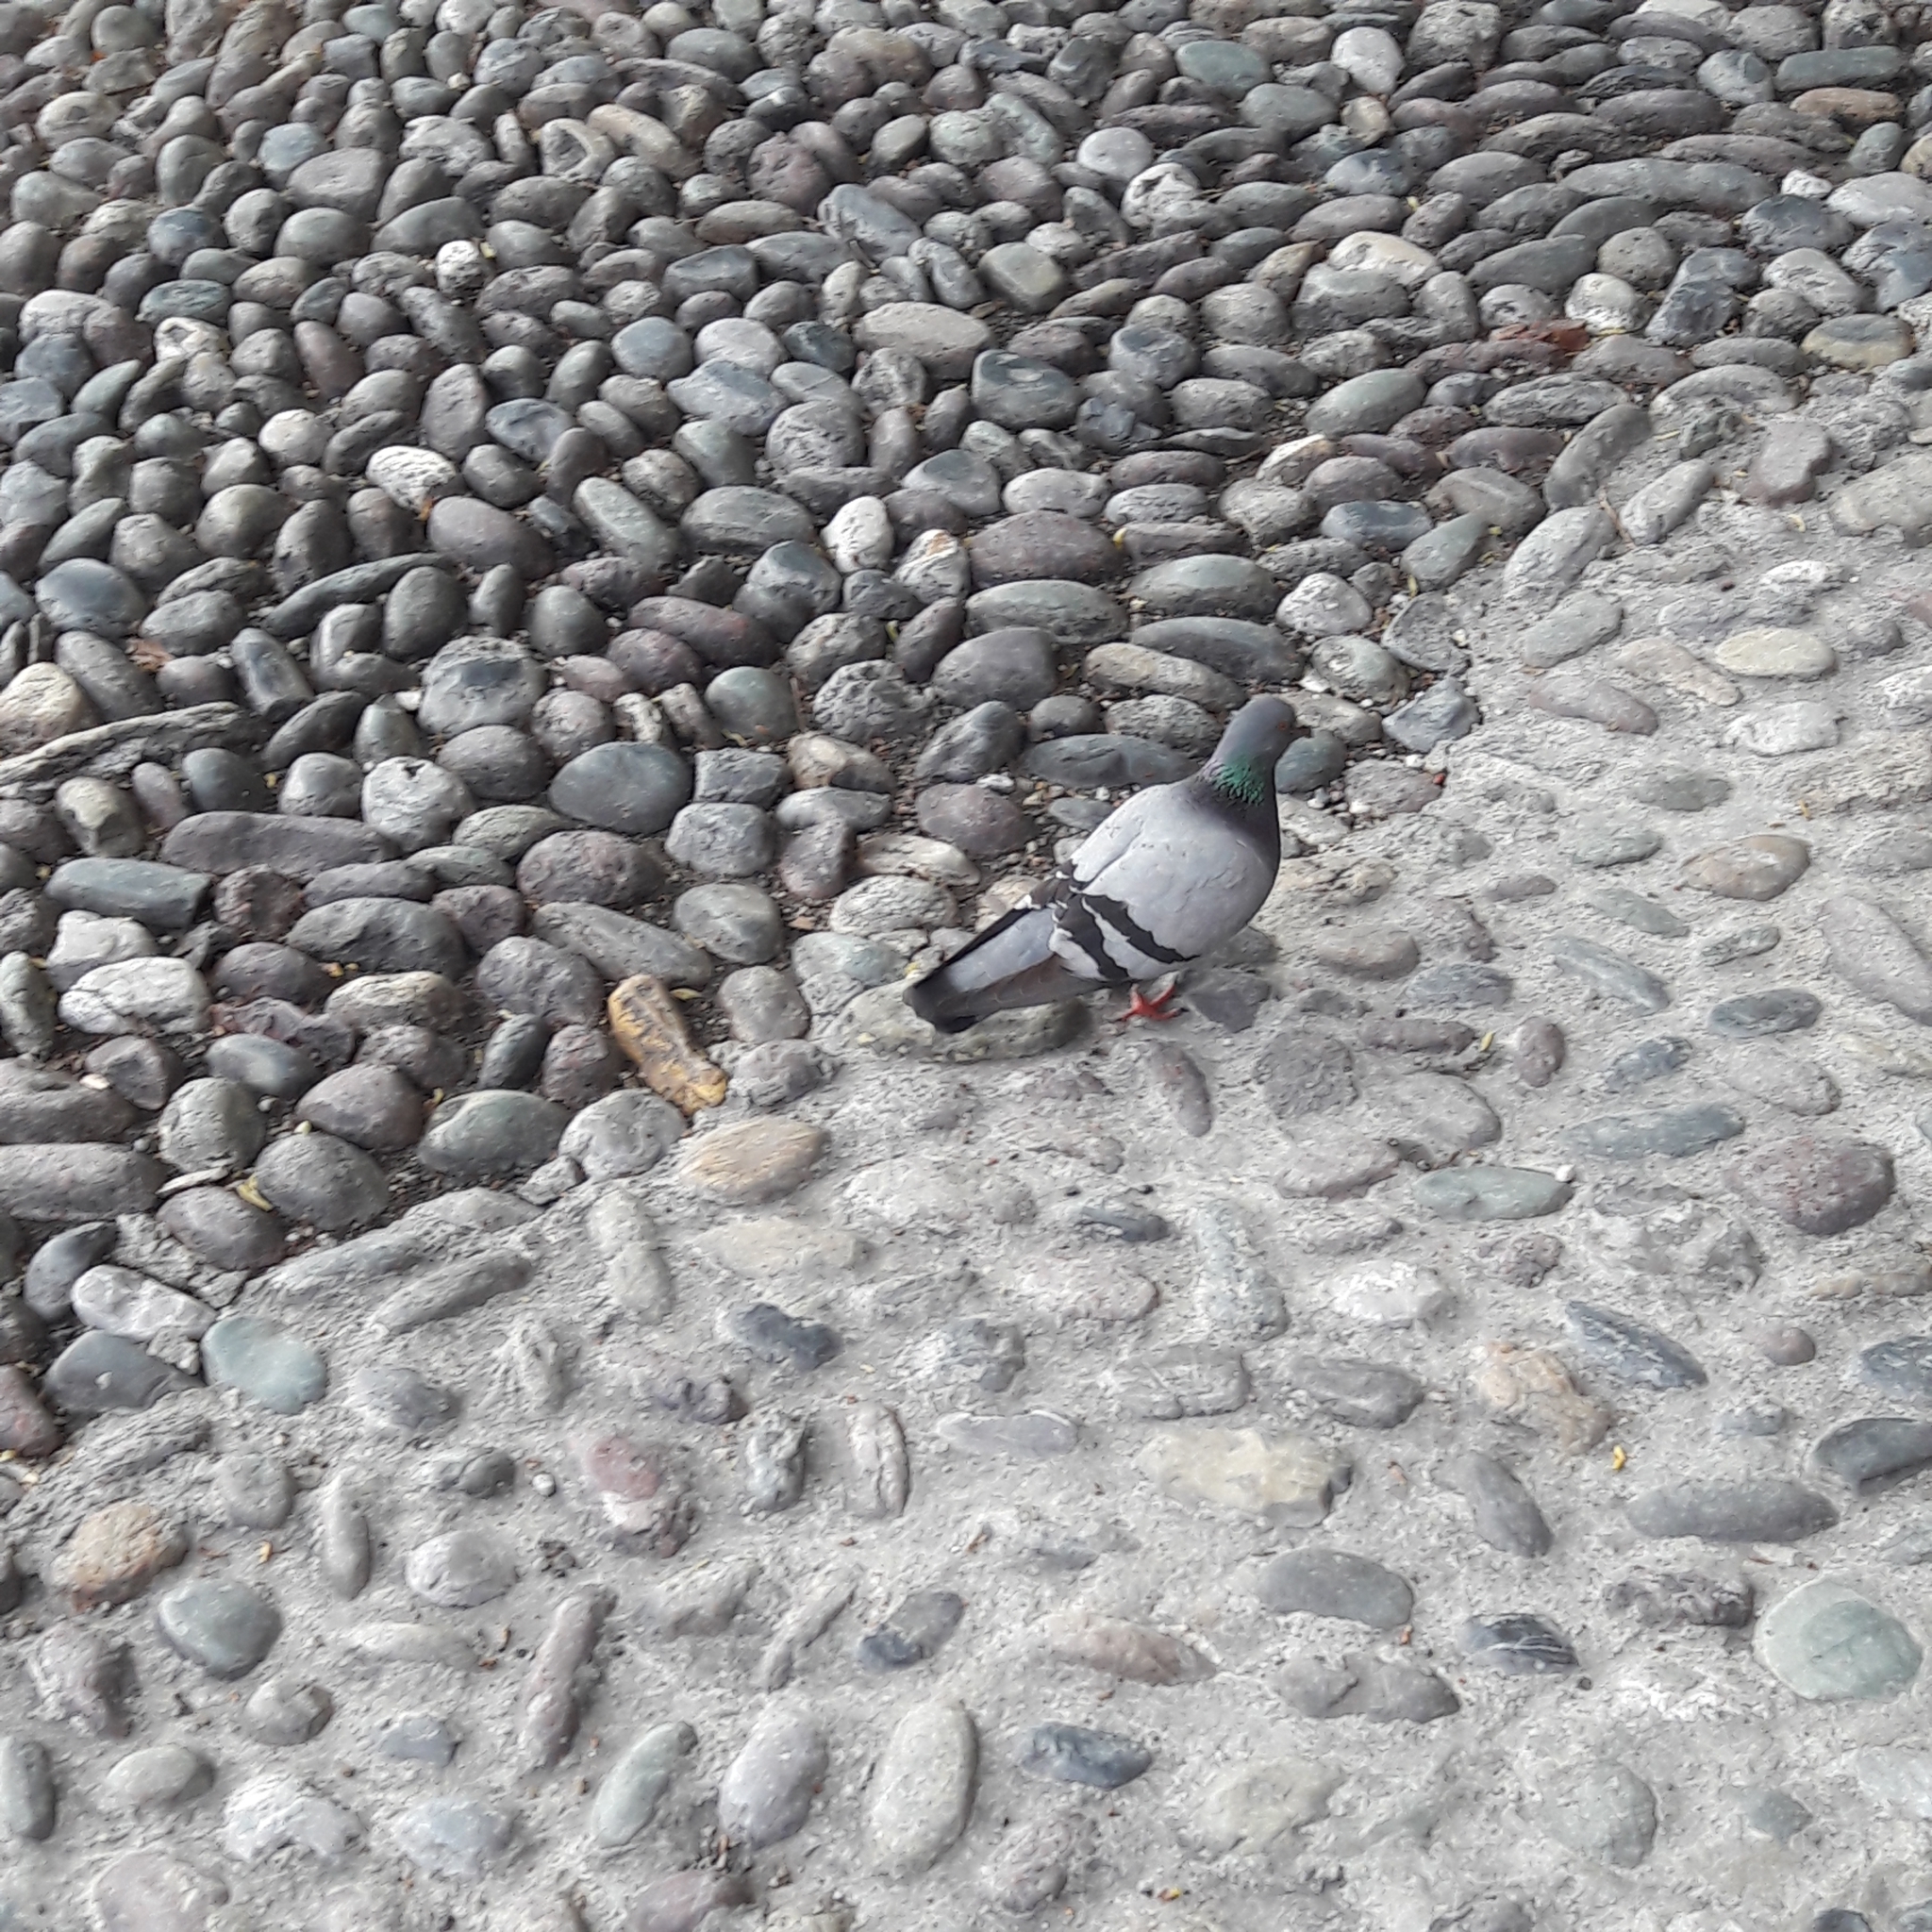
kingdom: Animalia
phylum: Chordata
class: Aves
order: Columbiformes
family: Columbidae
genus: Columba
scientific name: Columba livia
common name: Rock pigeon
